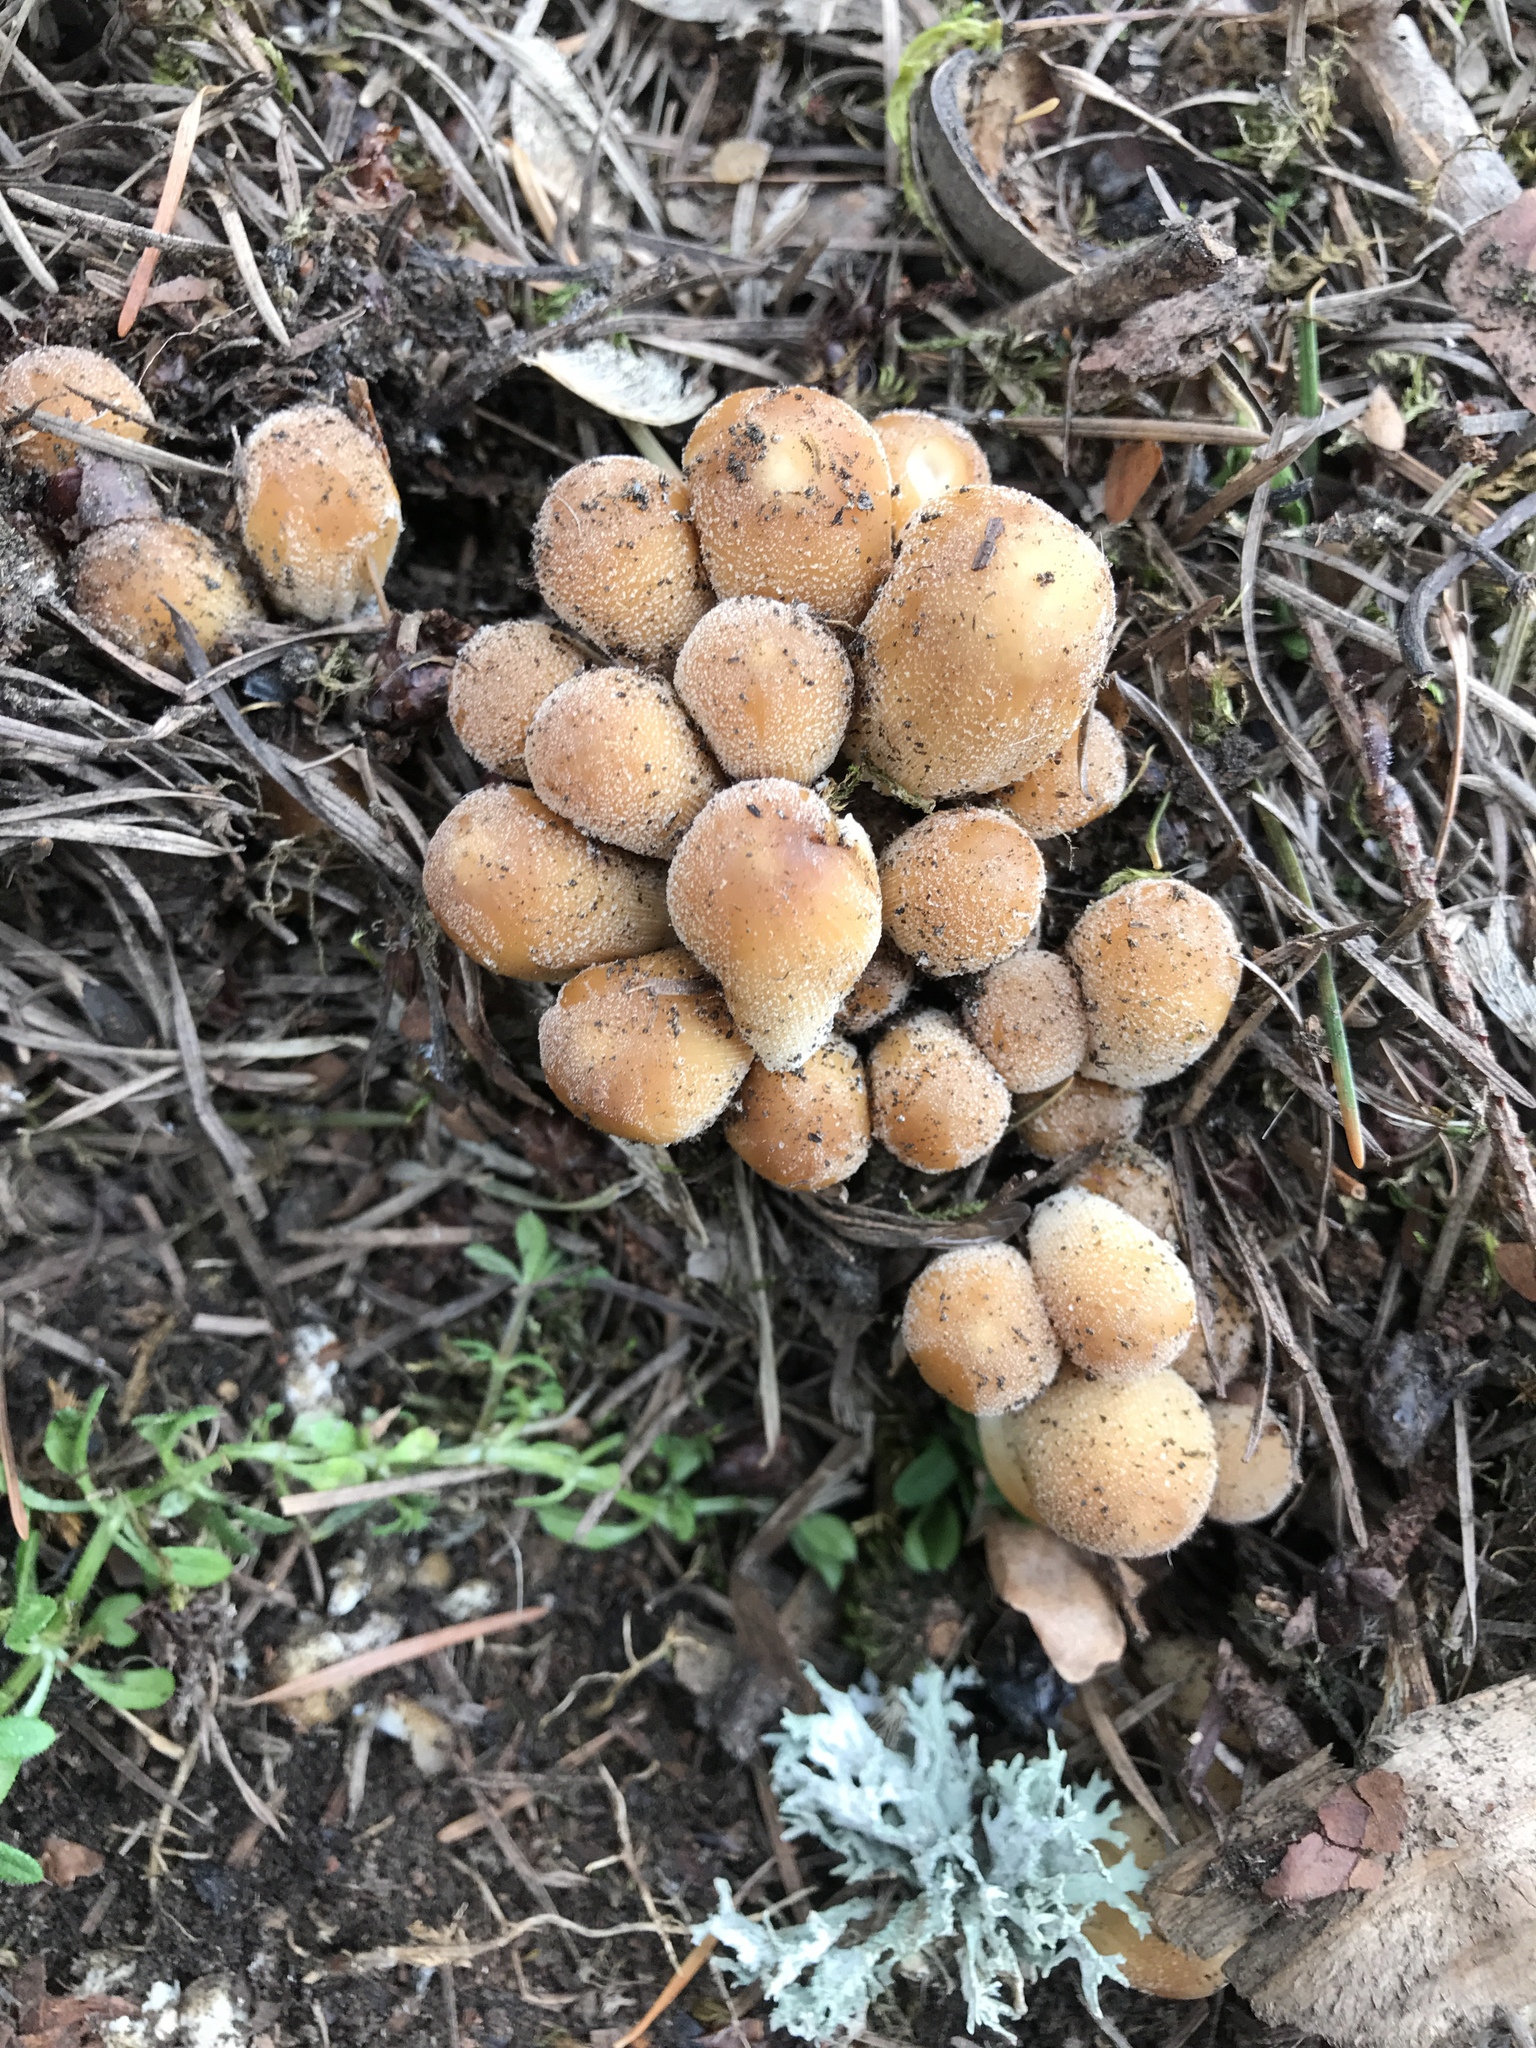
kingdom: Fungi
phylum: Basidiomycota
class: Agaricomycetes
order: Agaricales
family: Psathyrellaceae
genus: Coprinellus
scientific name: Coprinellus micaceus
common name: Glistening ink-cap
